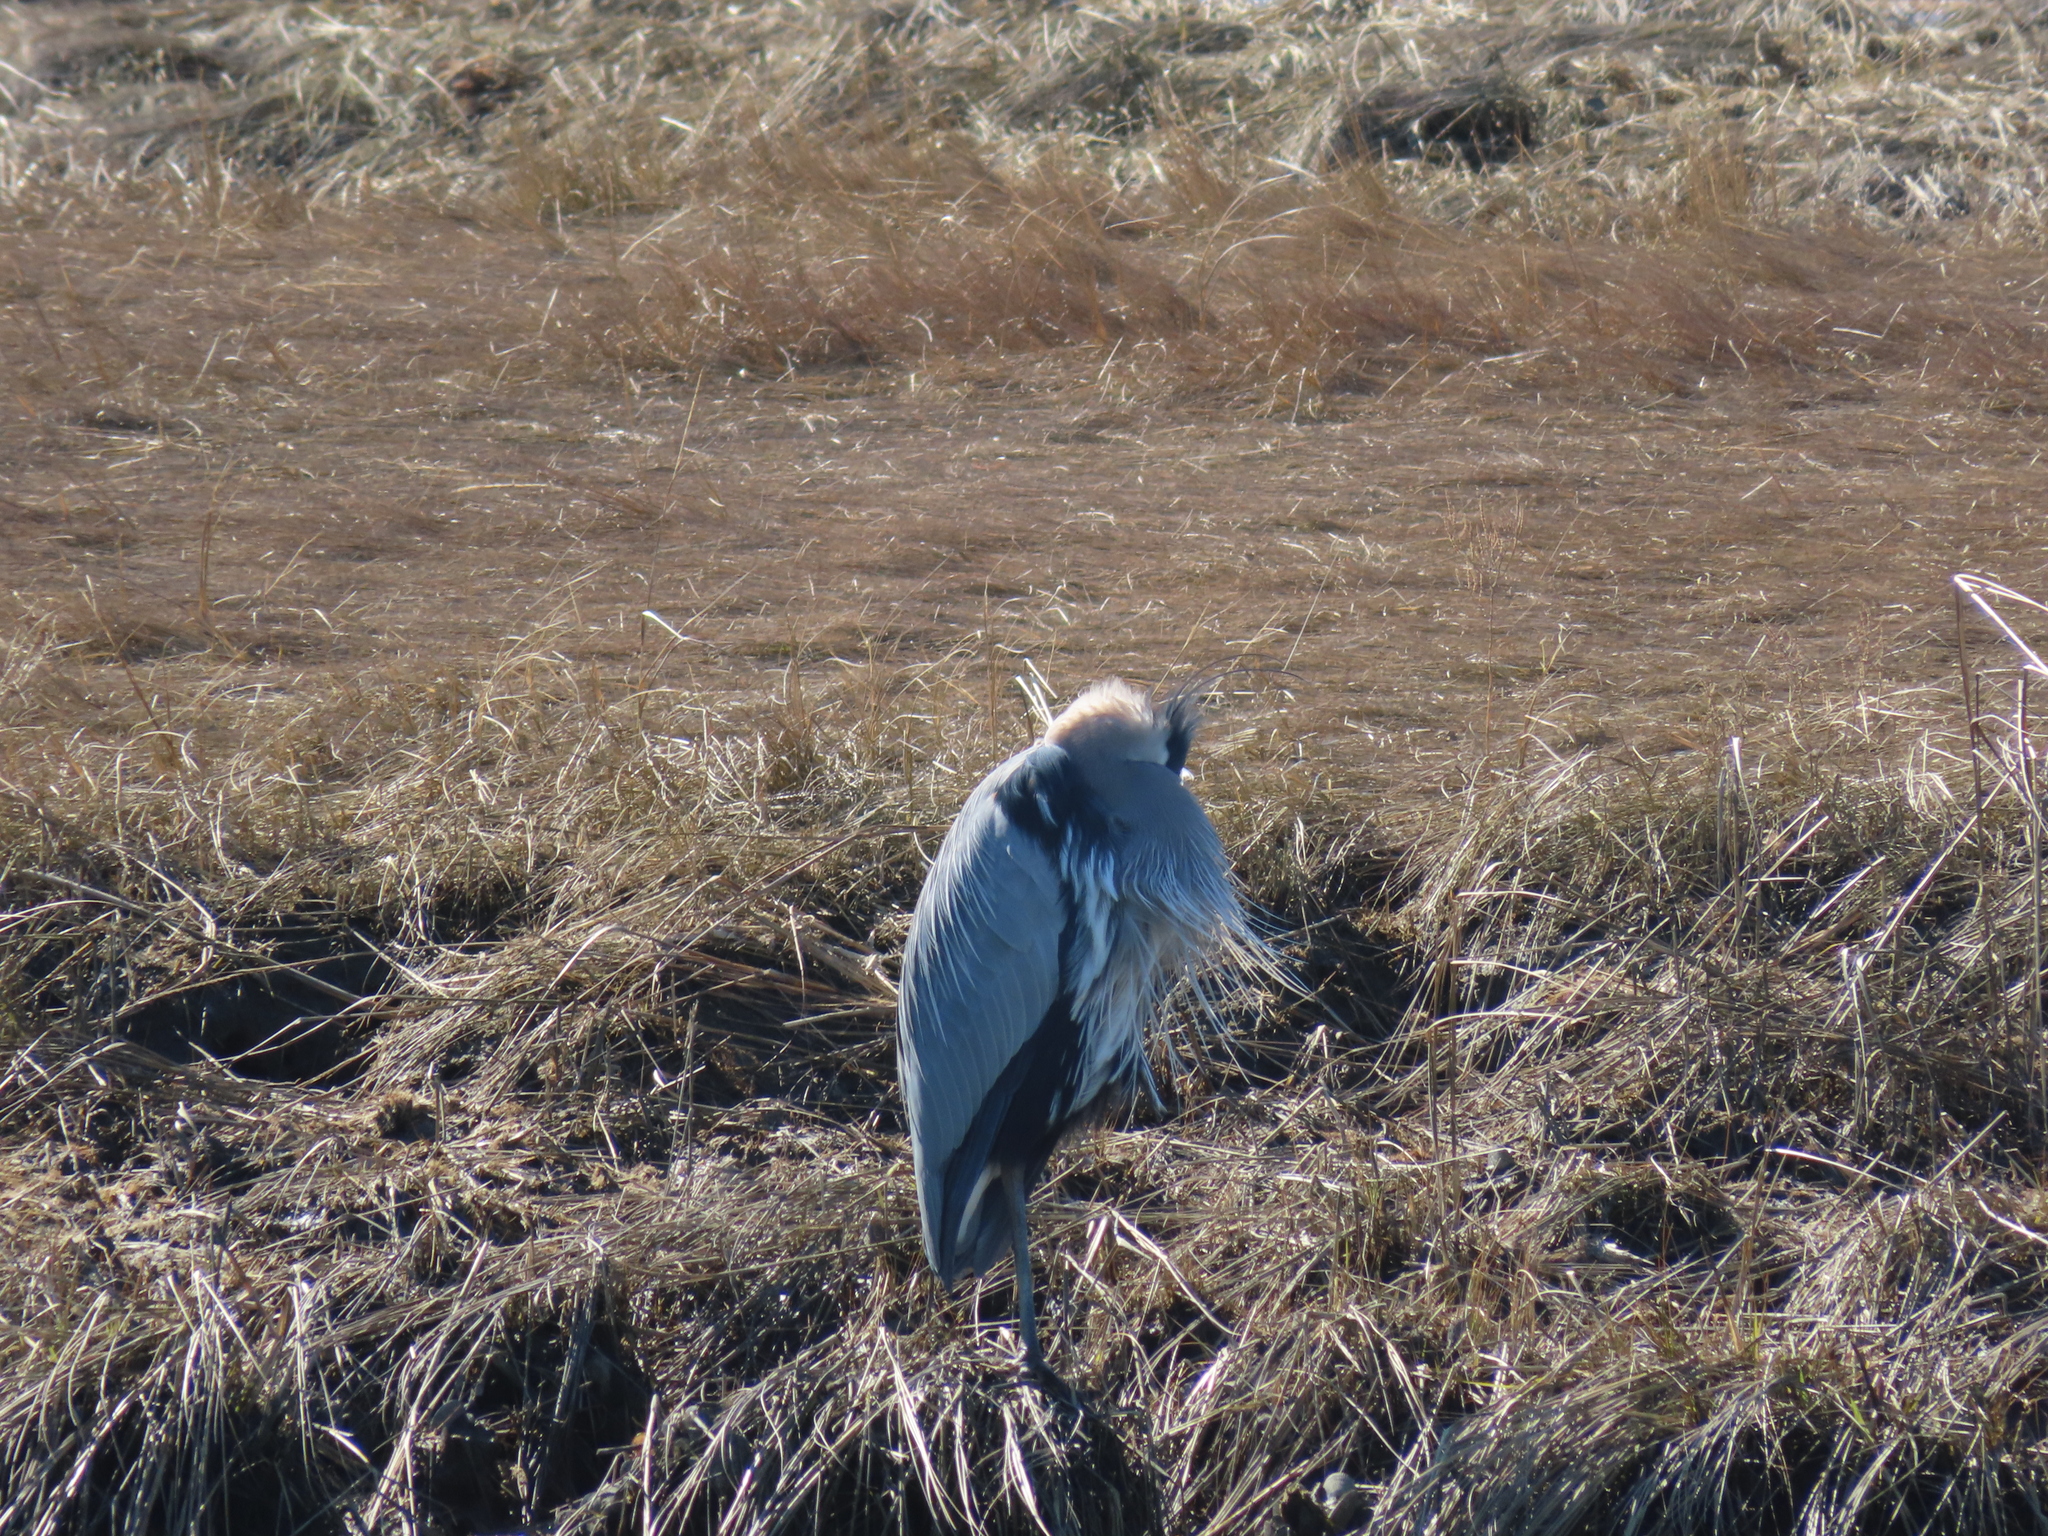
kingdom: Animalia
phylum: Chordata
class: Aves
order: Pelecaniformes
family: Ardeidae
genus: Ardea
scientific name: Ardea herodias
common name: Great blue heron
